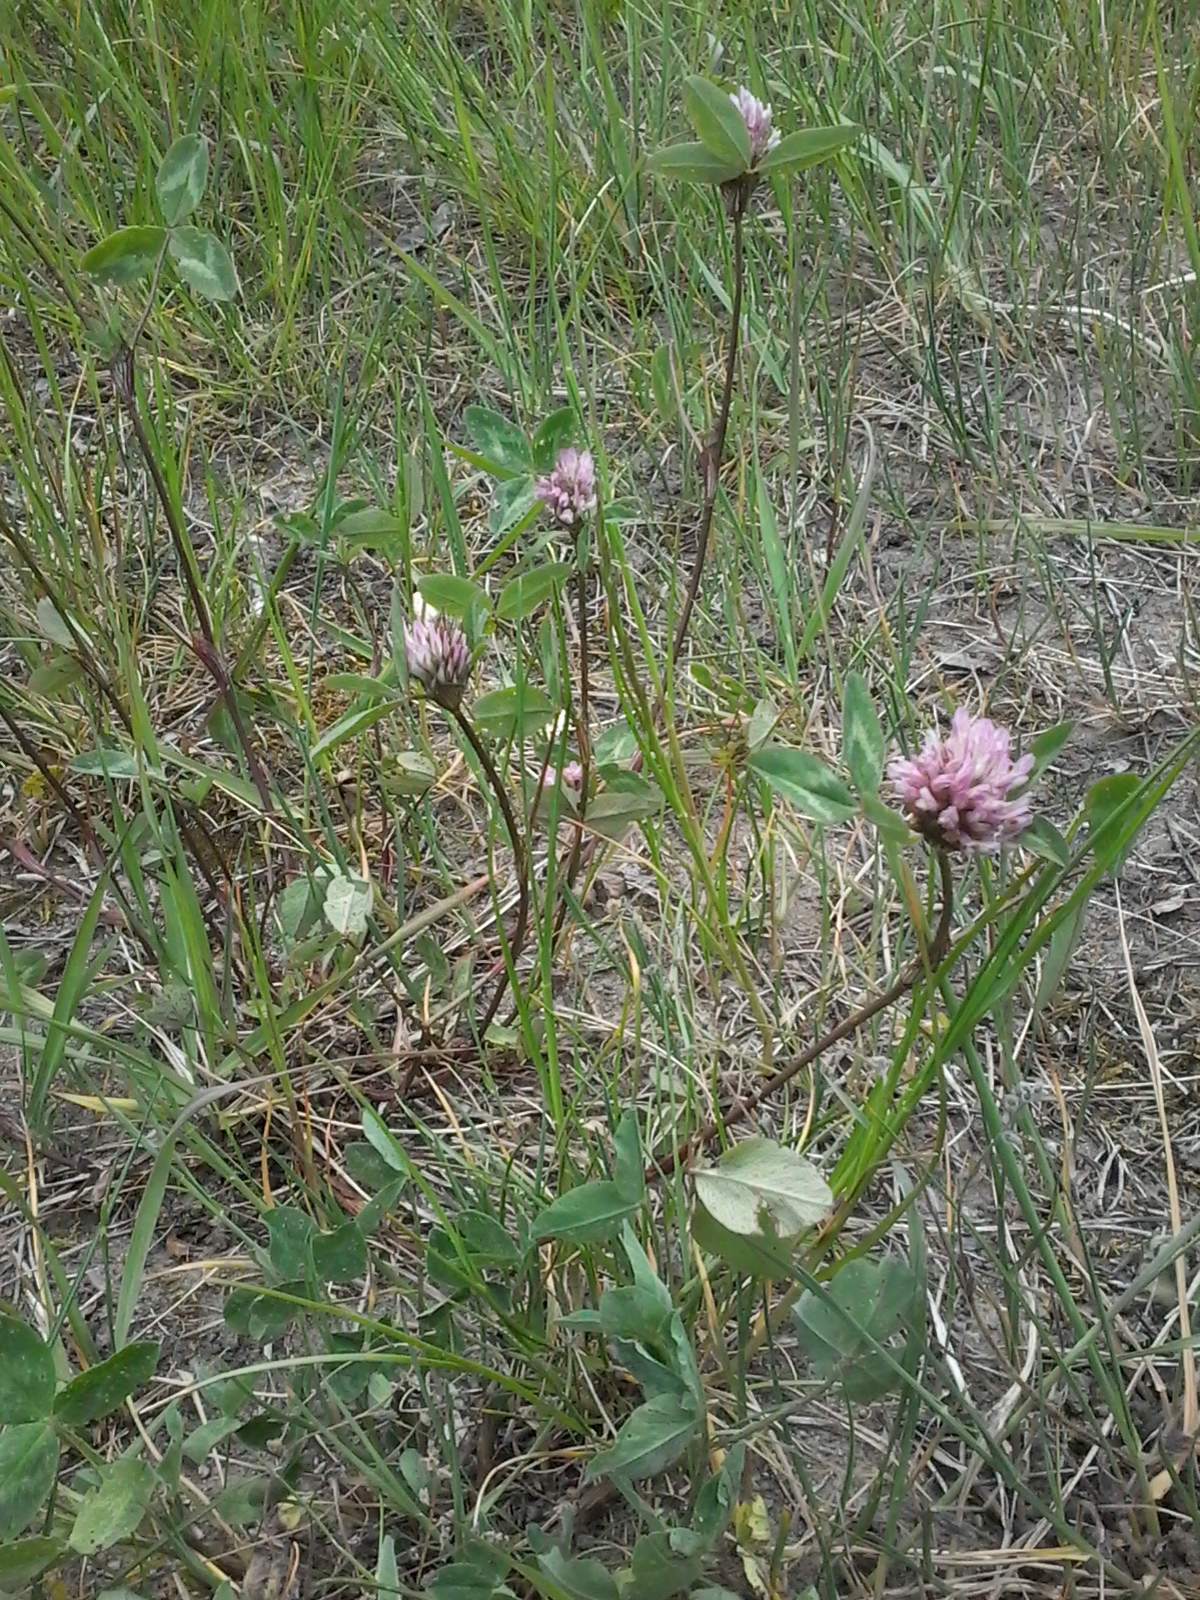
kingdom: Plantae
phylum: Tracheophyta
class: Magnoliopsida
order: Fabales
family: Fabaceae
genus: Trifolium
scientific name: Trifolium pratense
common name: Red clover
